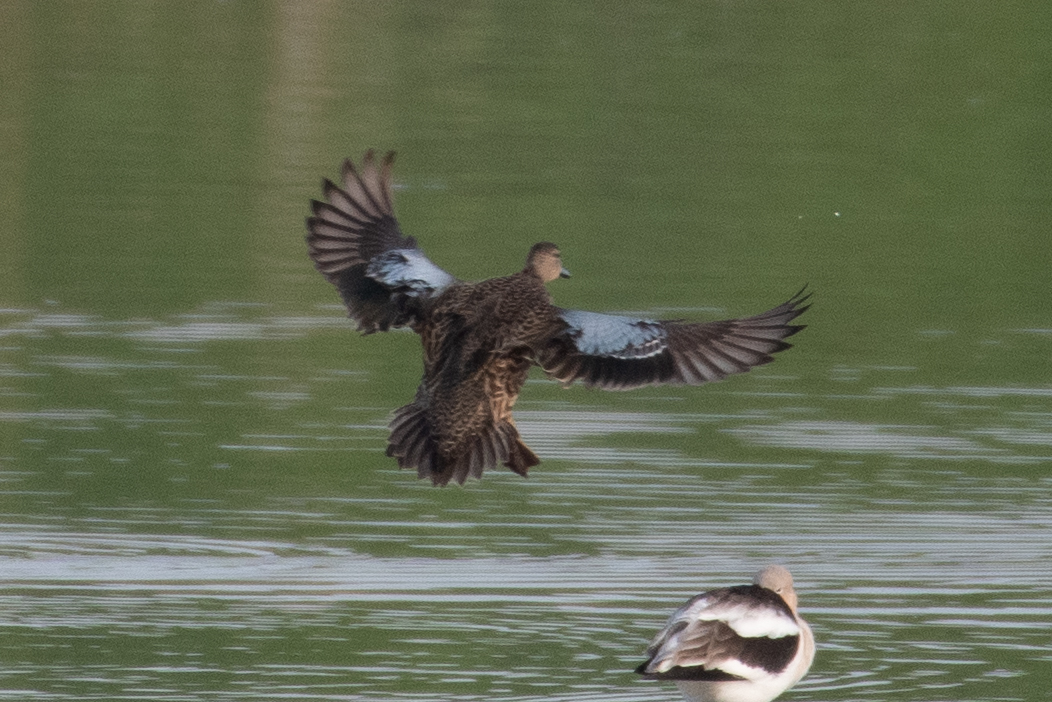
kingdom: Animalia
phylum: Chordata
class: Aves
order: Anseriformes
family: Anatidae
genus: Spatula
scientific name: Spatula discors
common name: Blue-winged teal
